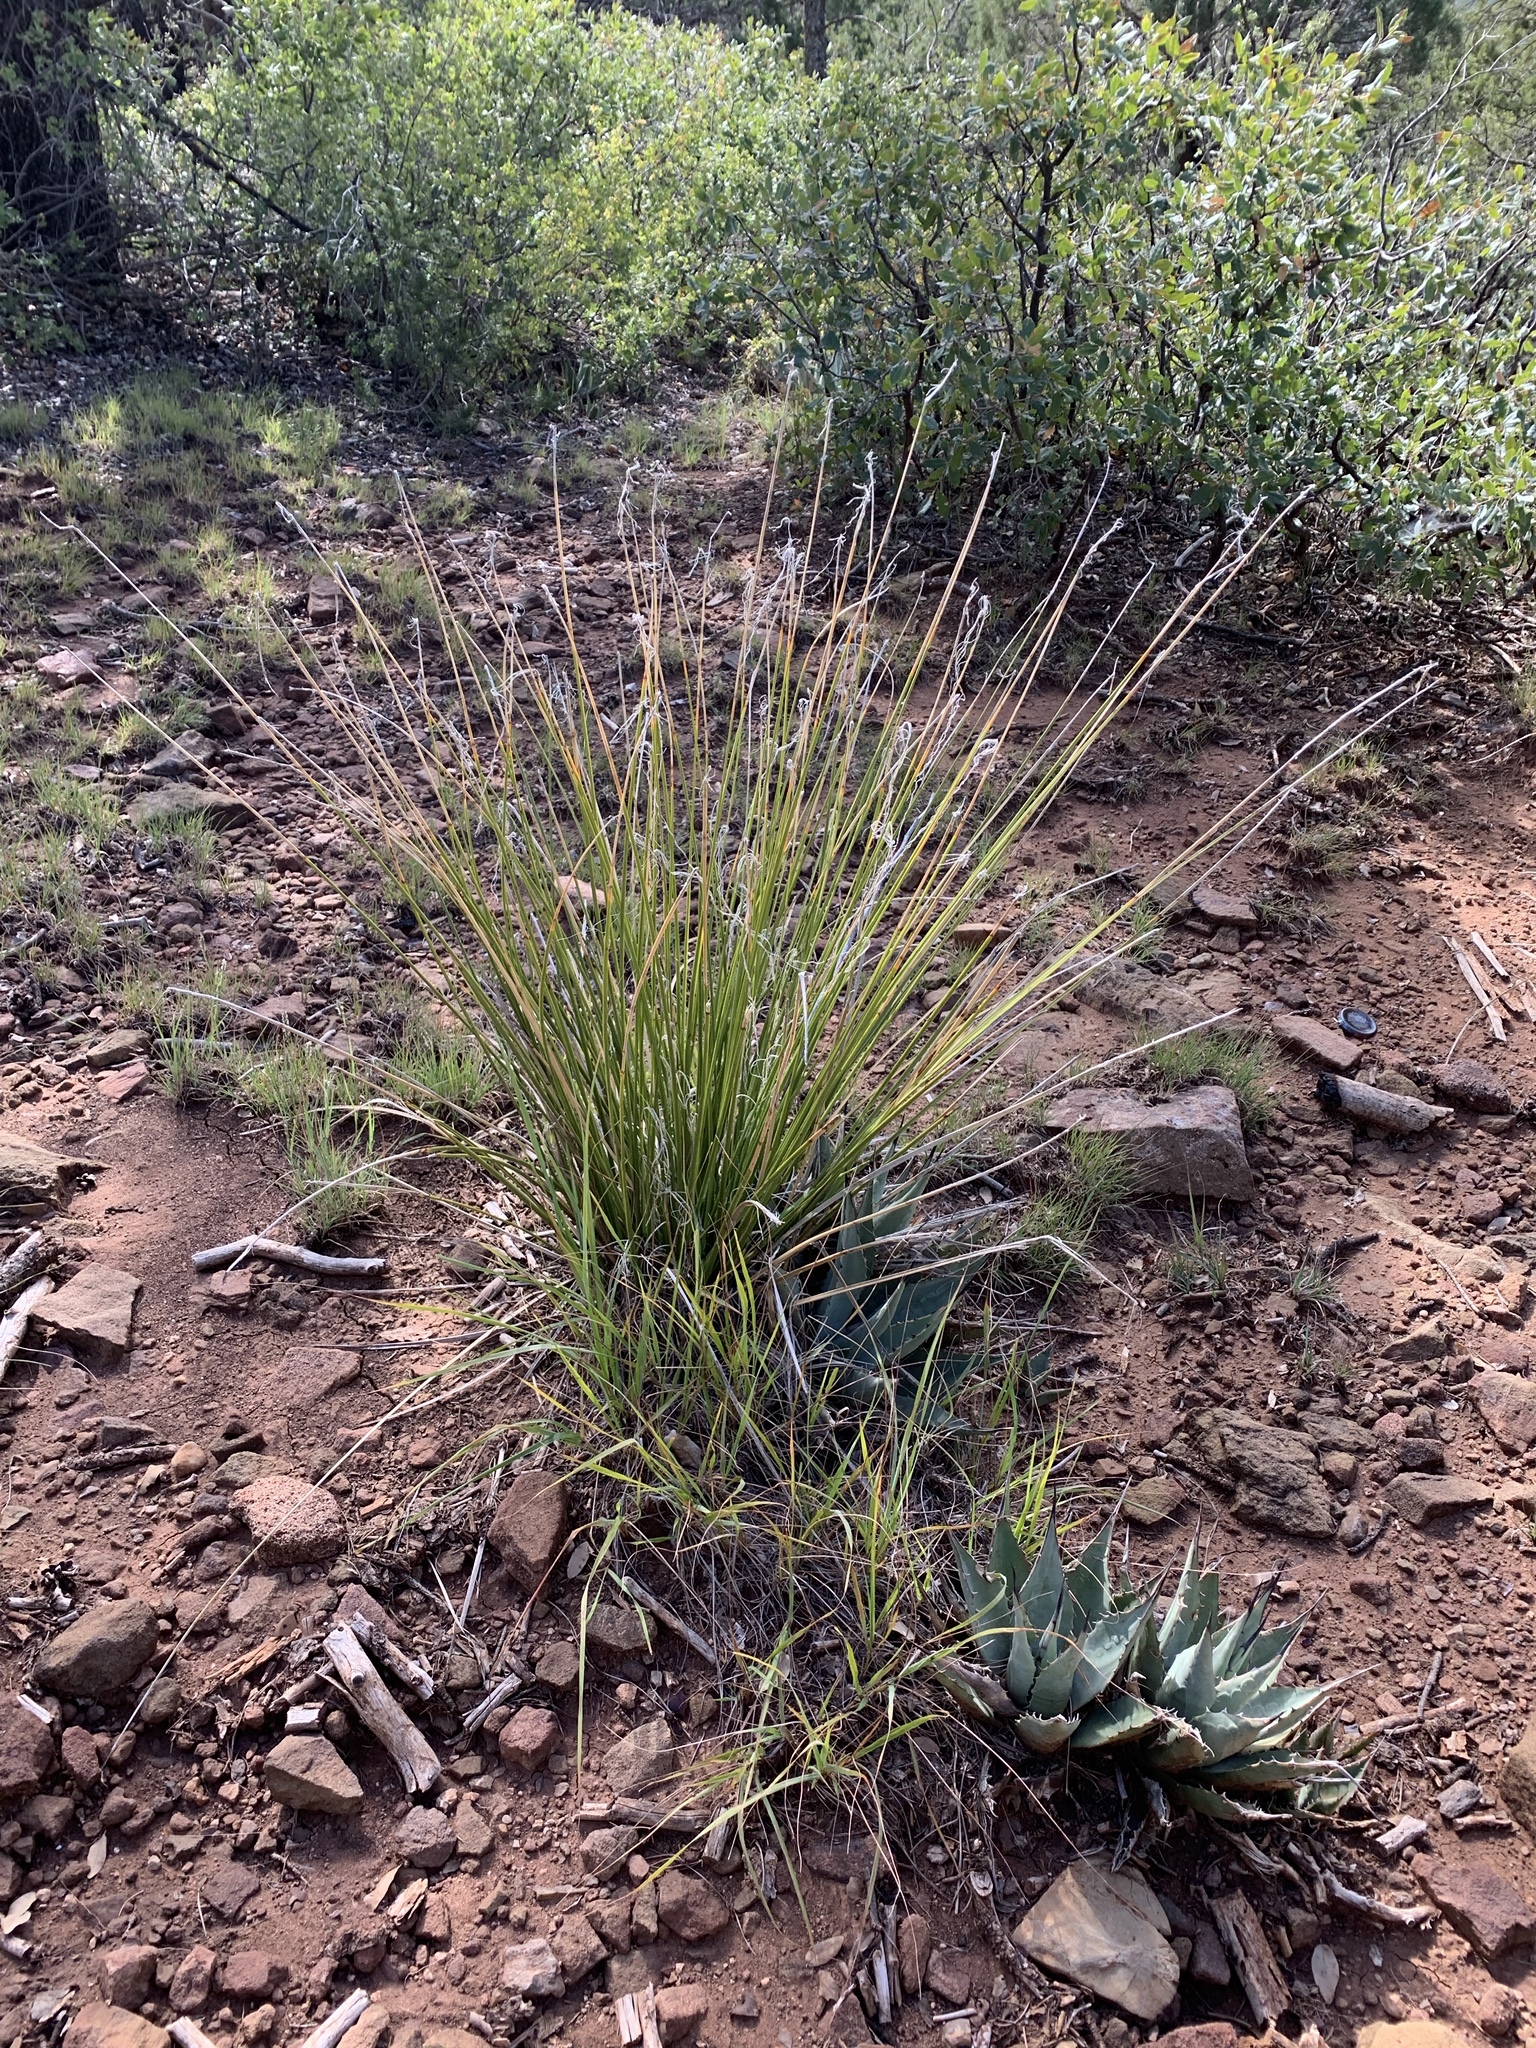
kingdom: Plantae
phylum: Tracheophyta
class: Liliopsida
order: Asparagales
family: Asparagaceae
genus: Nolina
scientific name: Nolina texana
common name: Texas sacahuiste
